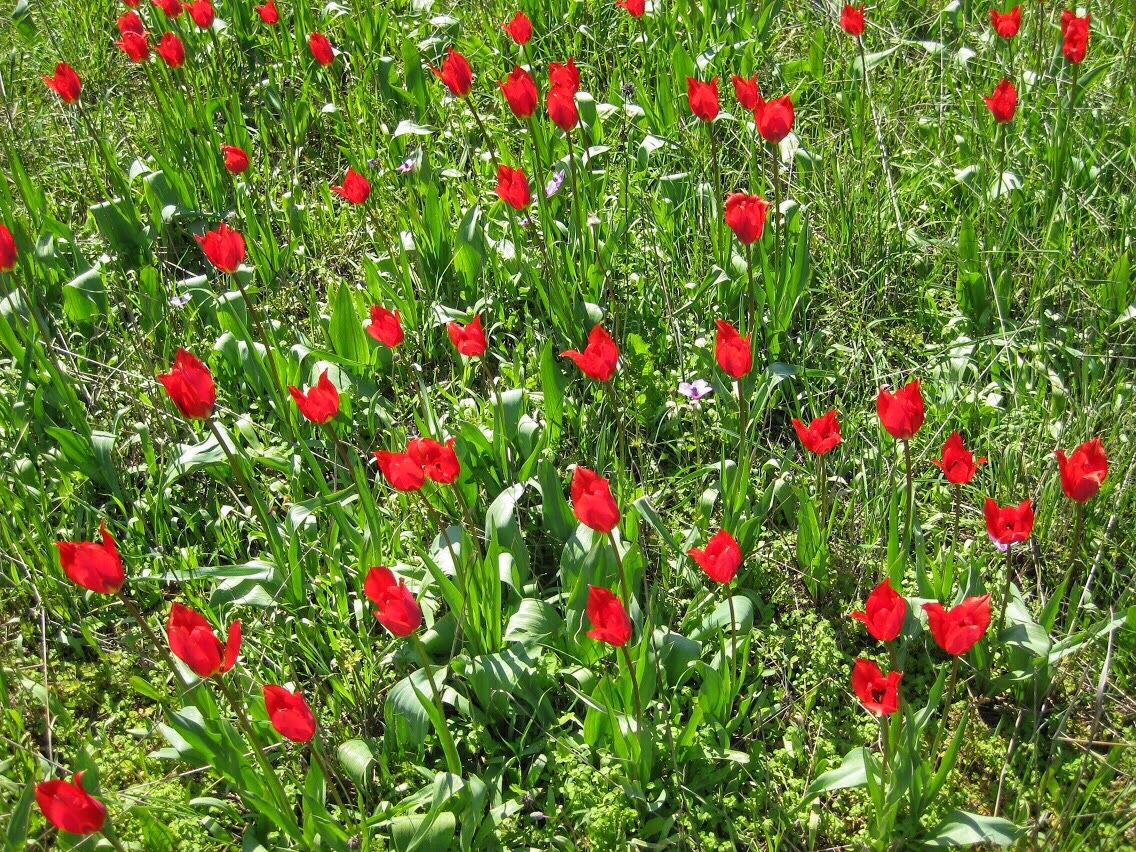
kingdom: Plantae
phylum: Tracheophyta
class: Liliopsida
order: Liliales
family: Liliaceae
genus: Tulipa
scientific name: Tulipa agenensis
